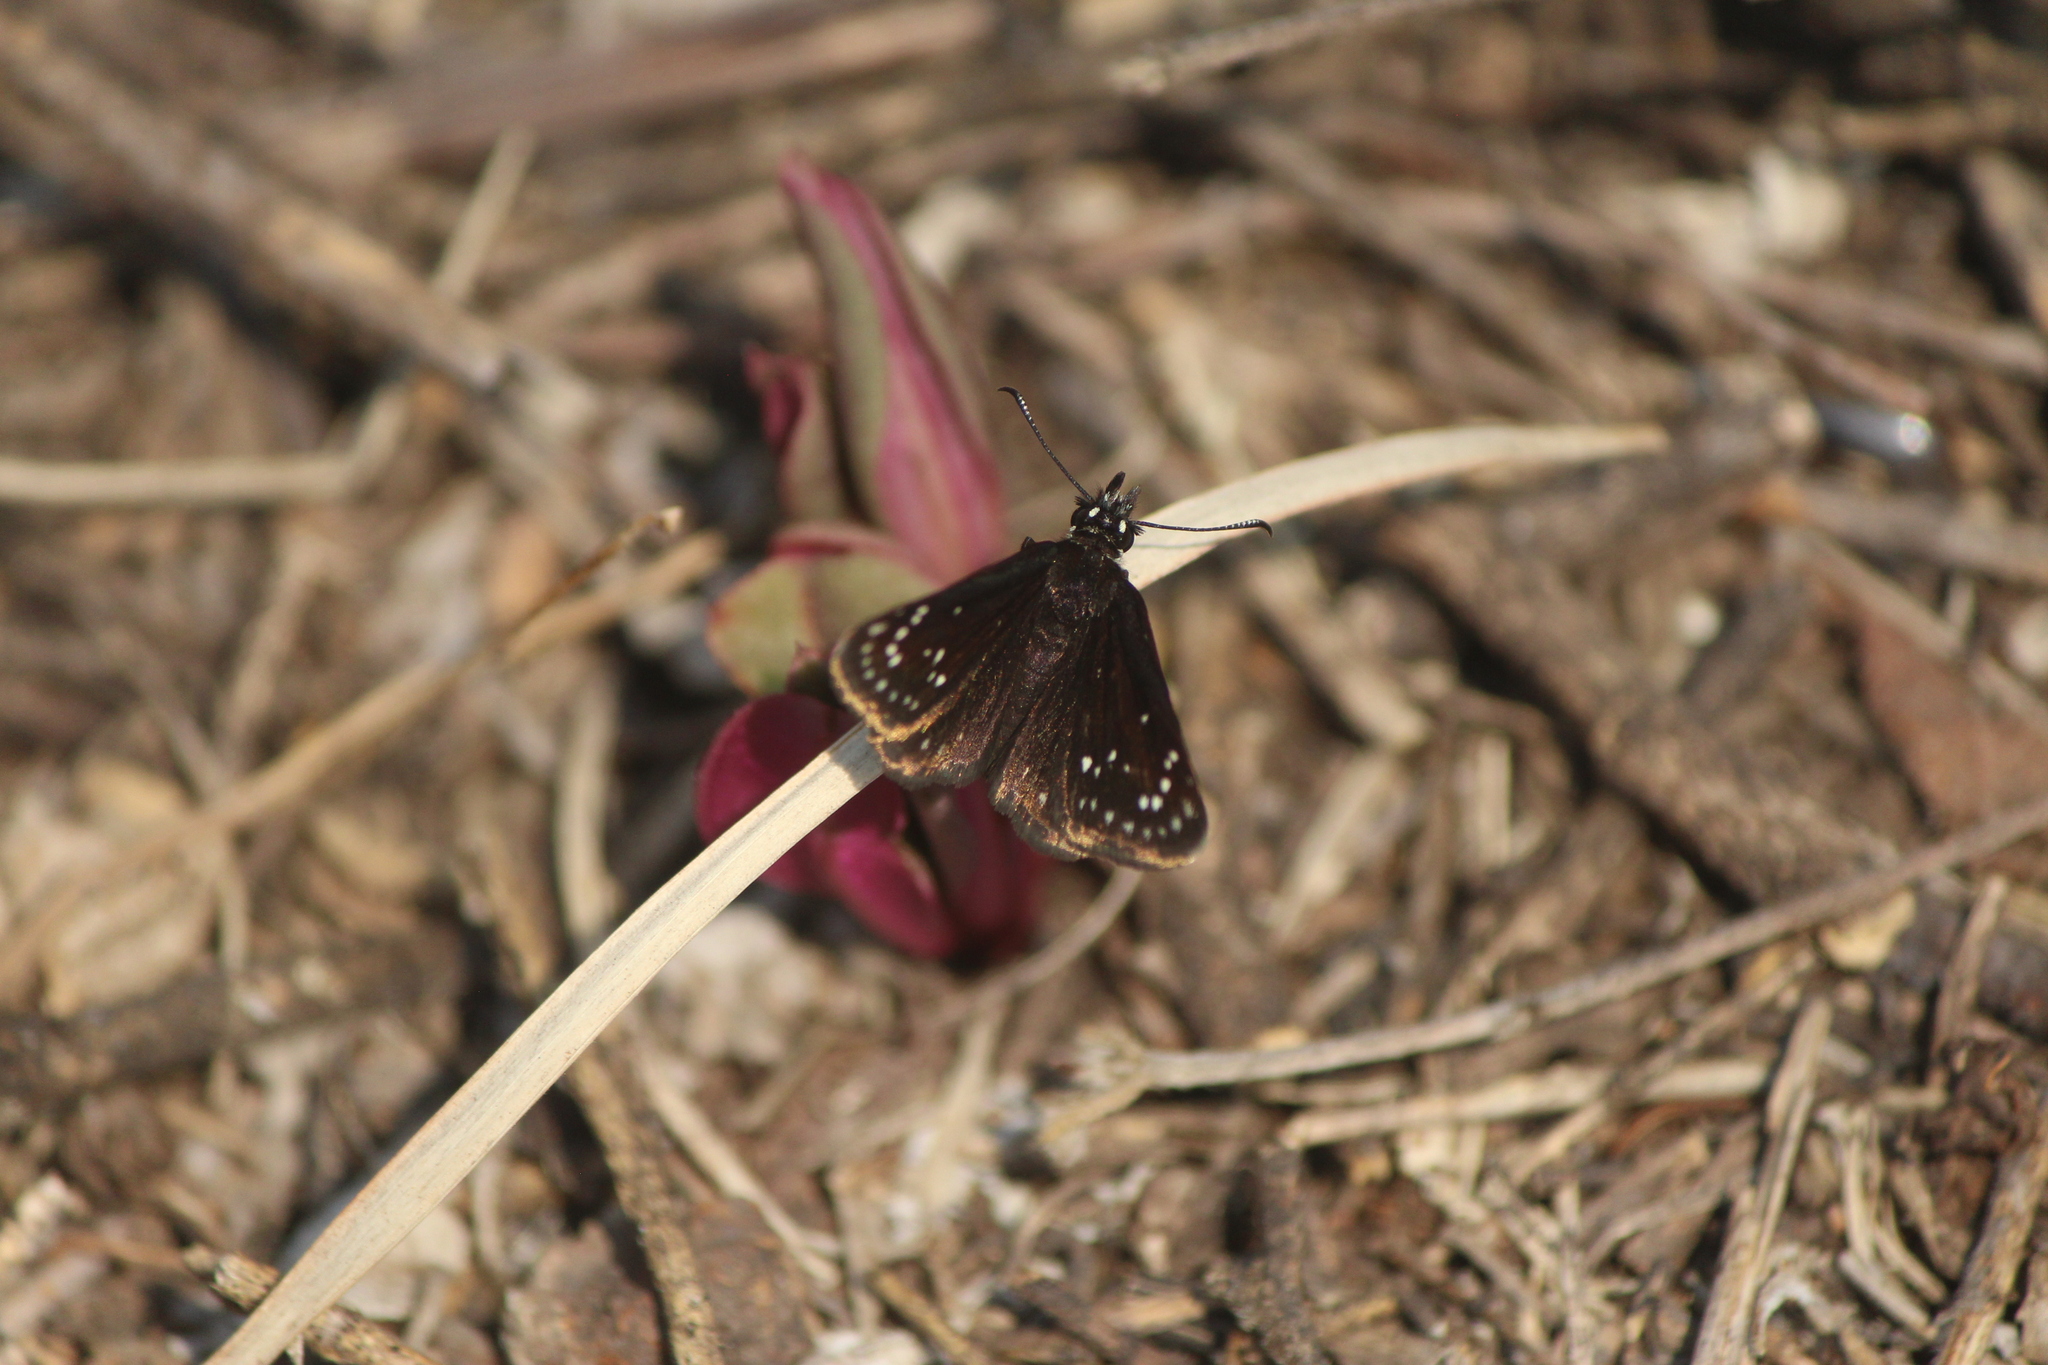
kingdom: Animalia
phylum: Arthropoda
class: Insecta
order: Lepidoptera
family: Hesperiidae
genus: Pholisora
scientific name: Pholisora catullus
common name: Common sootywing
